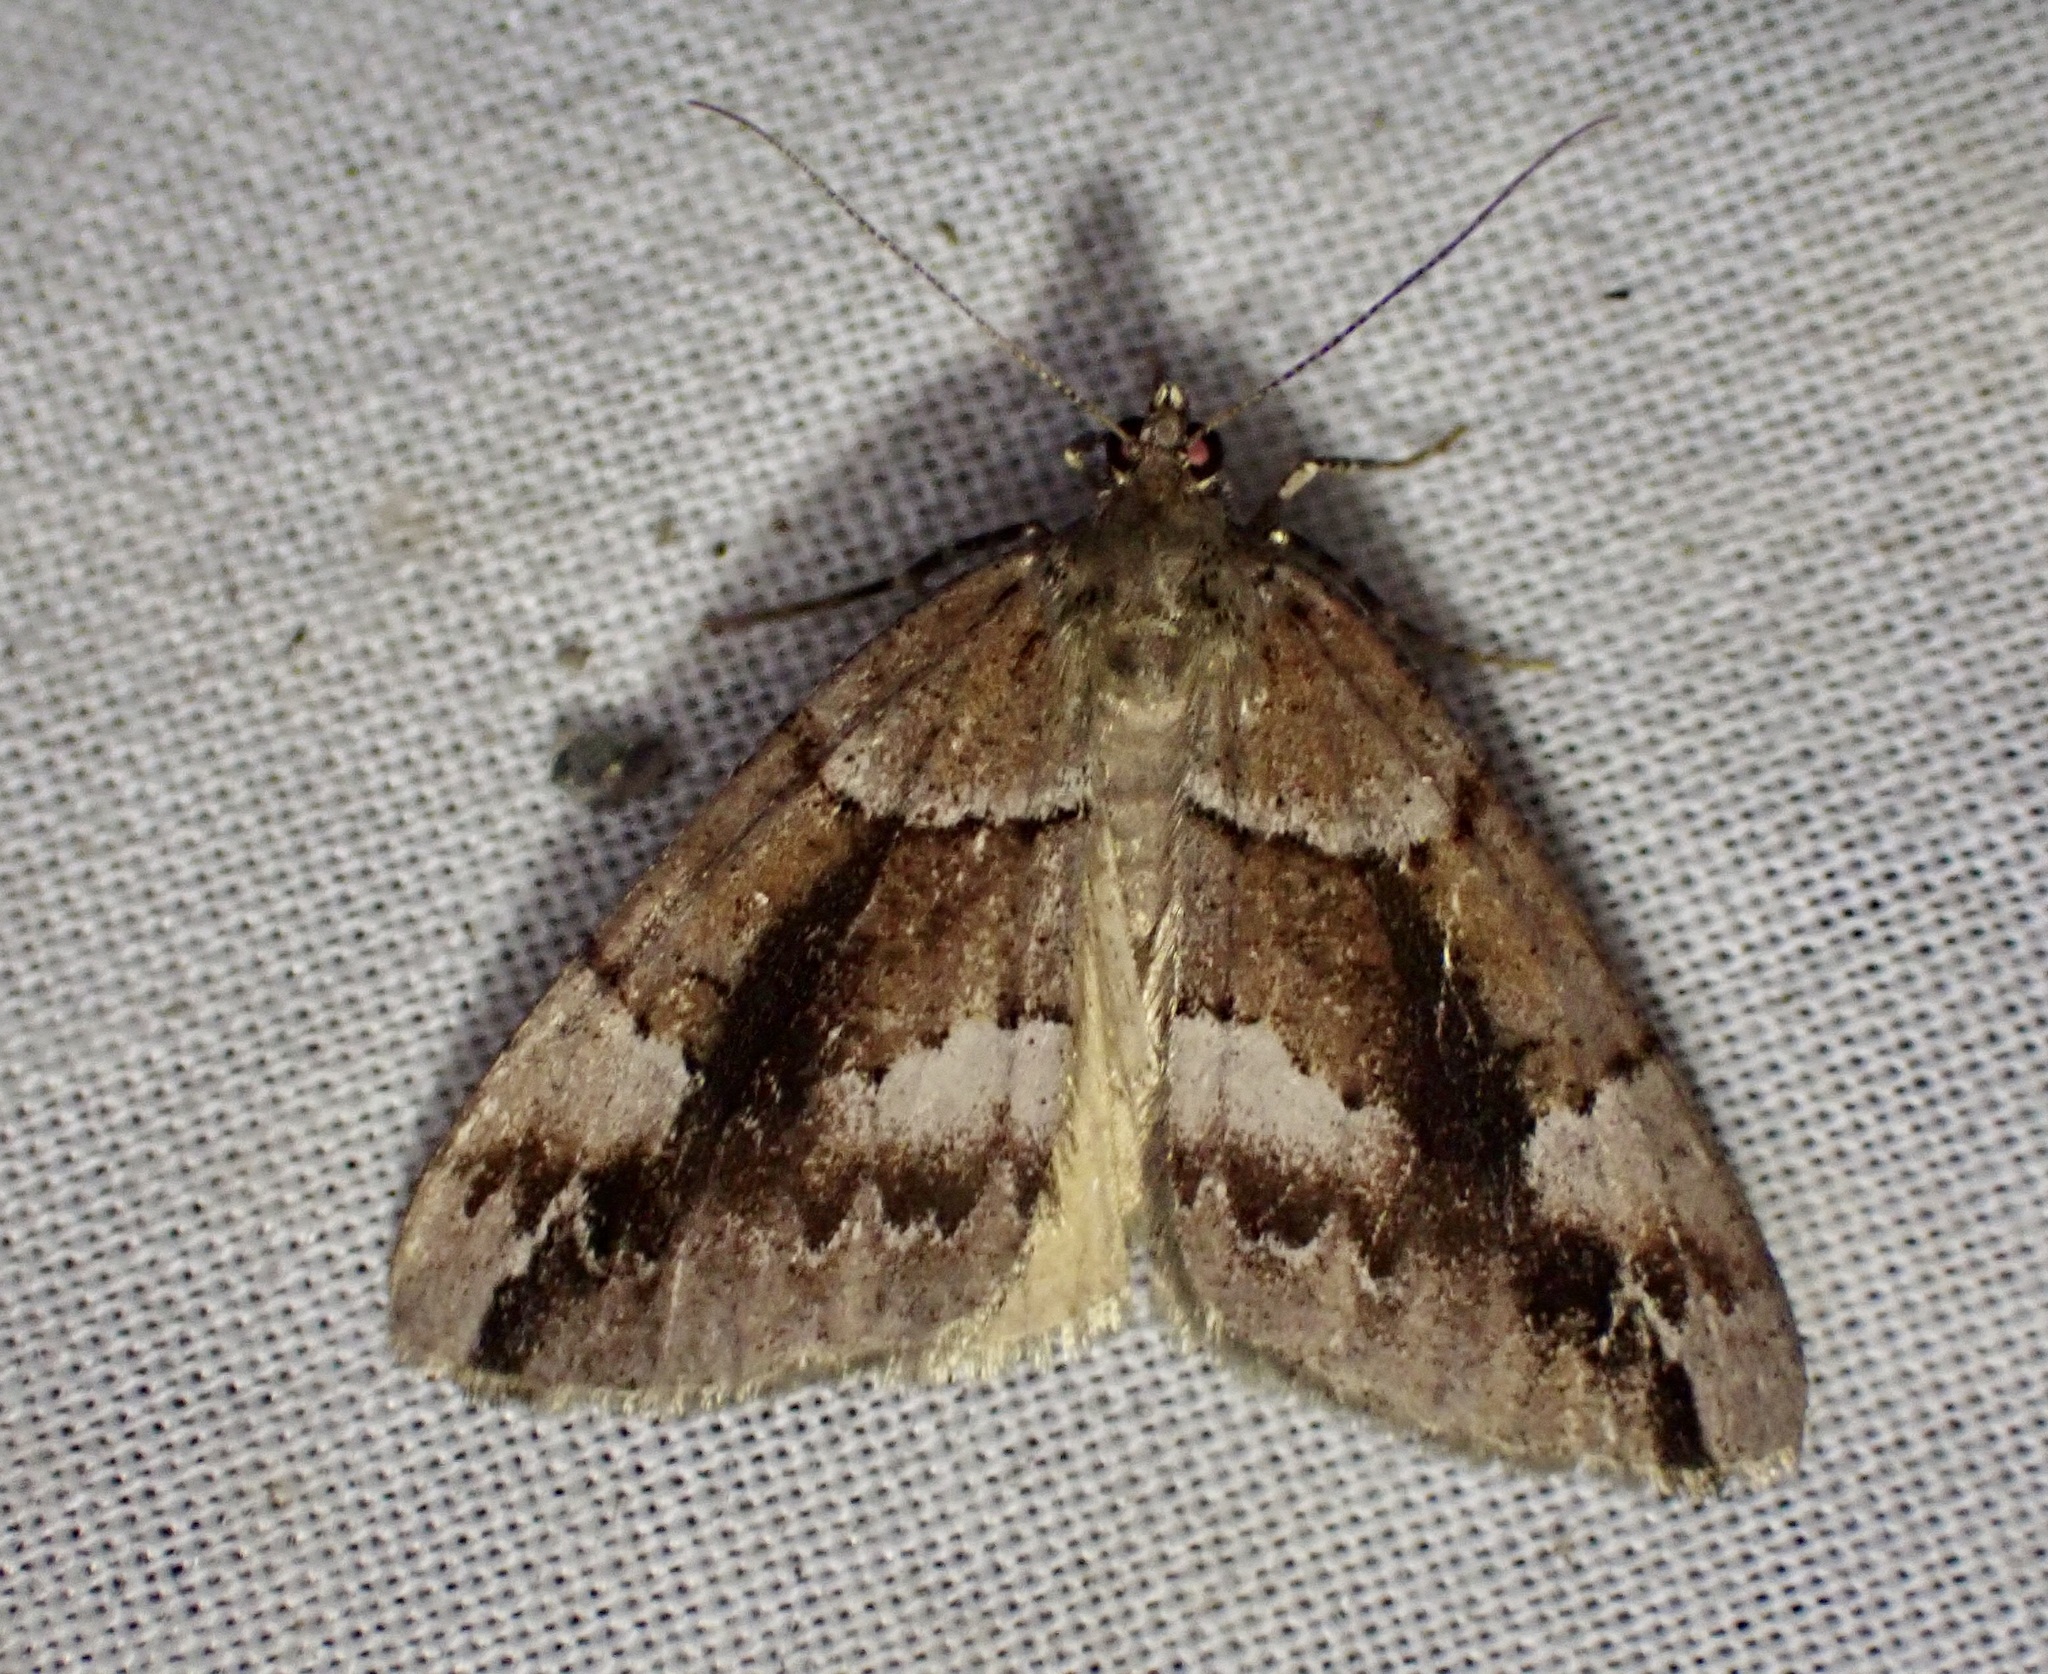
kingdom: Animalia
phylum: Arthropoda
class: Insecta
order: Lepidoptera
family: Geometridae
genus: Pseudocoremia
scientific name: Pseudocoremia productata
